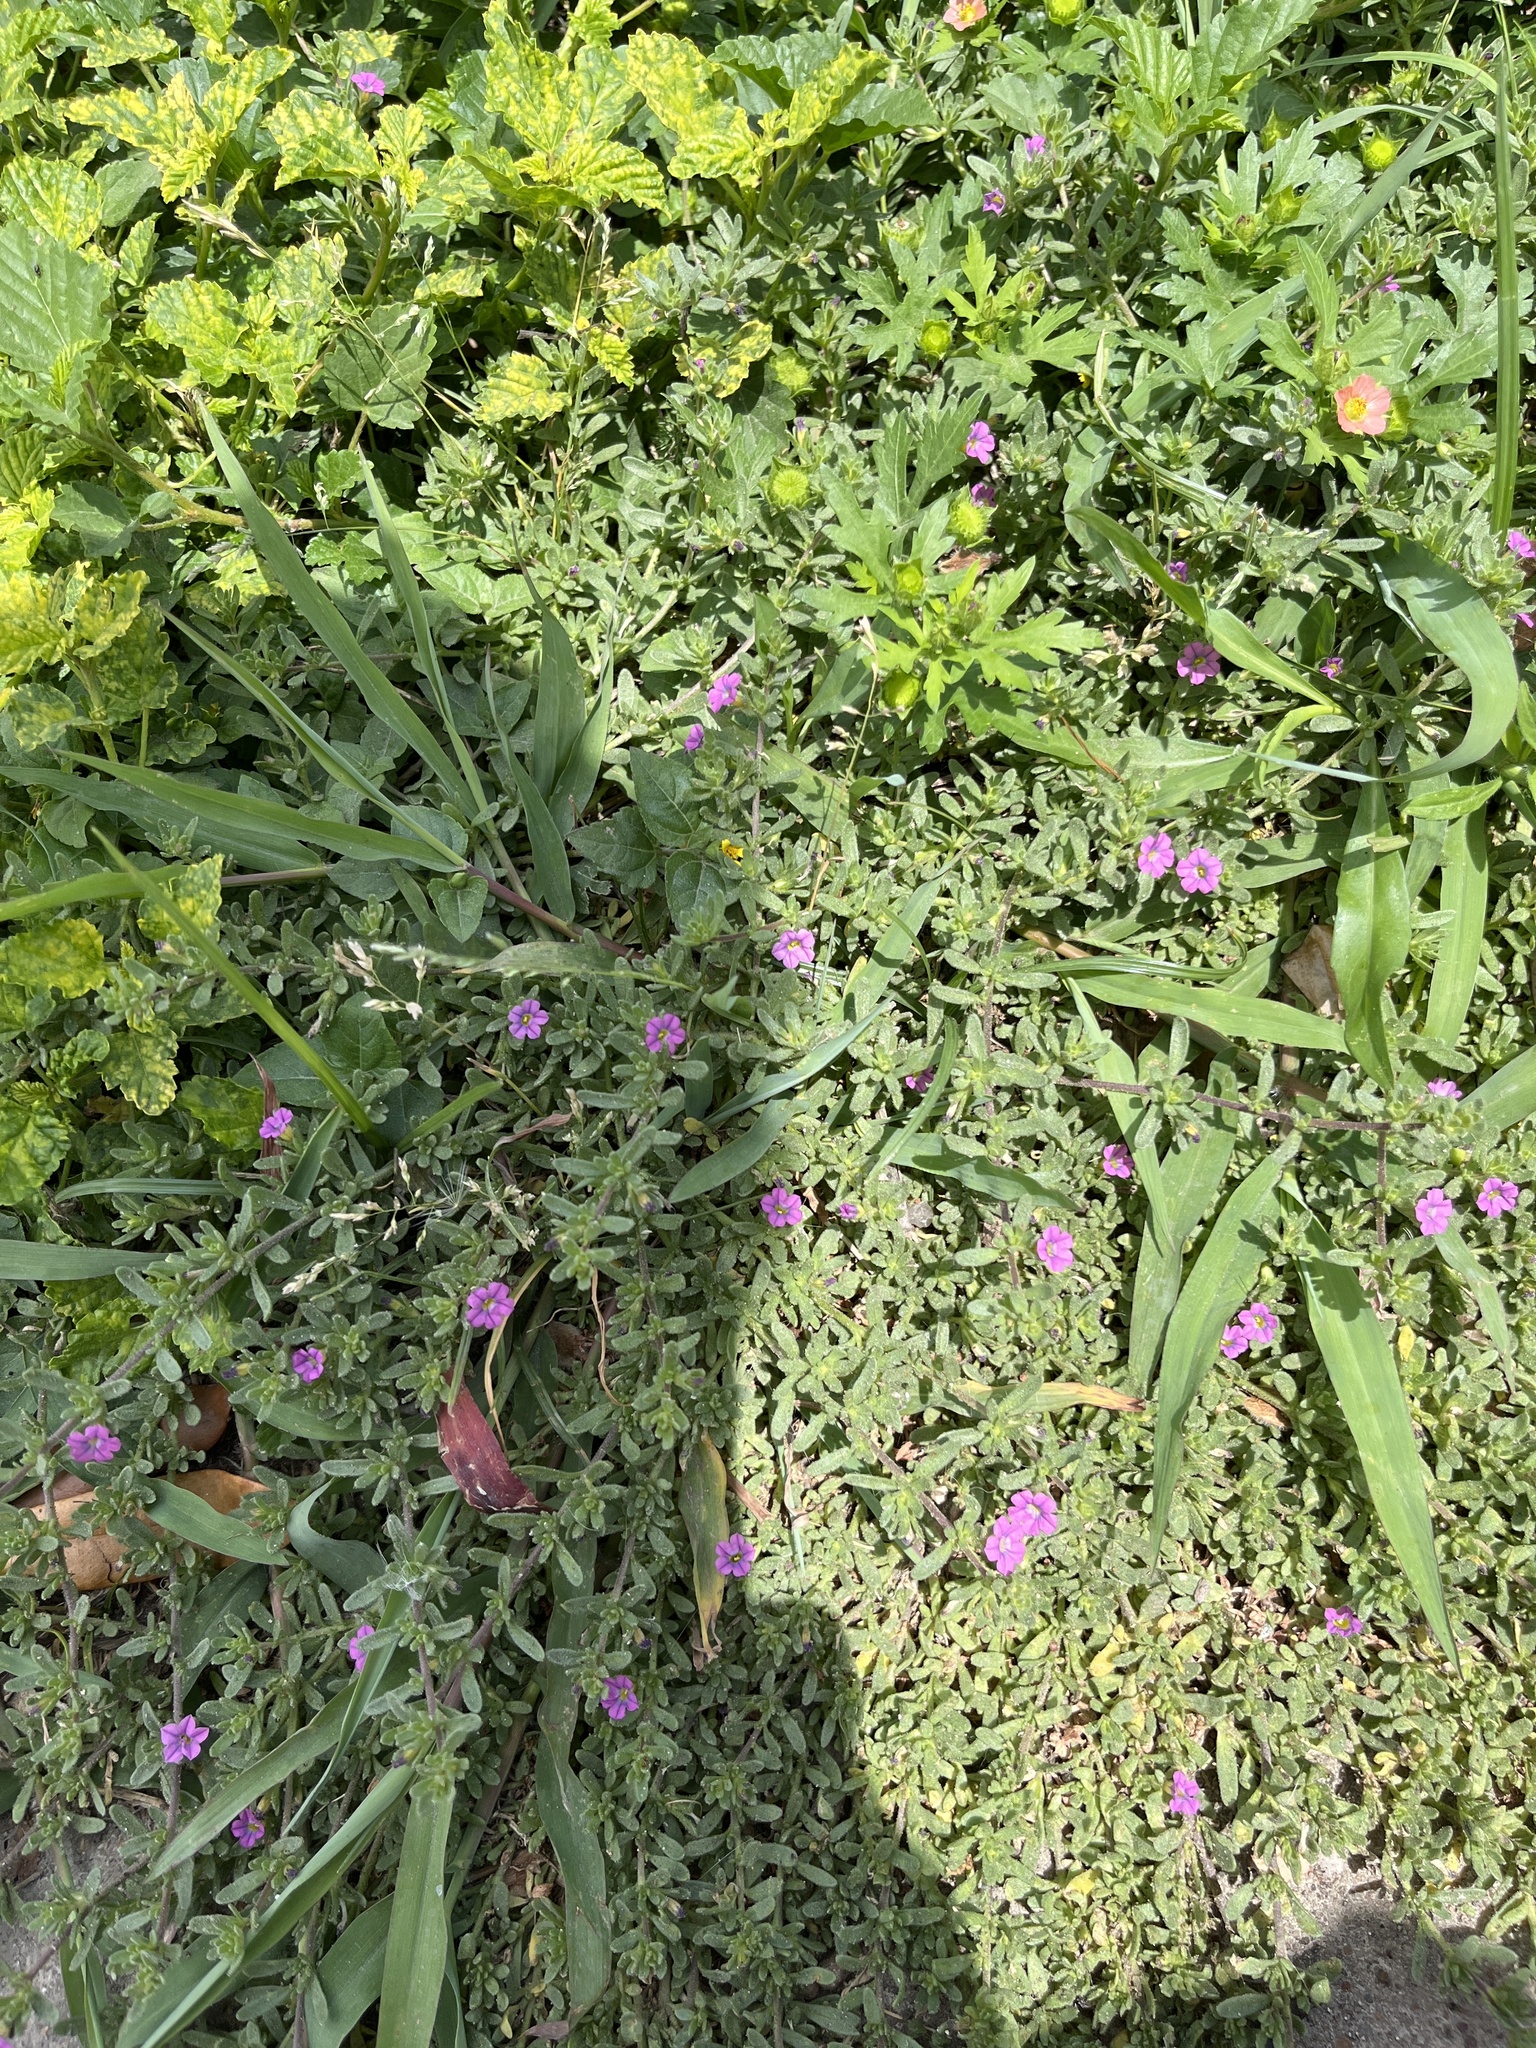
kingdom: Plantae
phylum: Tracheophyta
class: Magnoliopsida
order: Solanales
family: Solanaceae
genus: Calibrachoa
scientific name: Calibrachoa parviflora
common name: Seaside petunia
